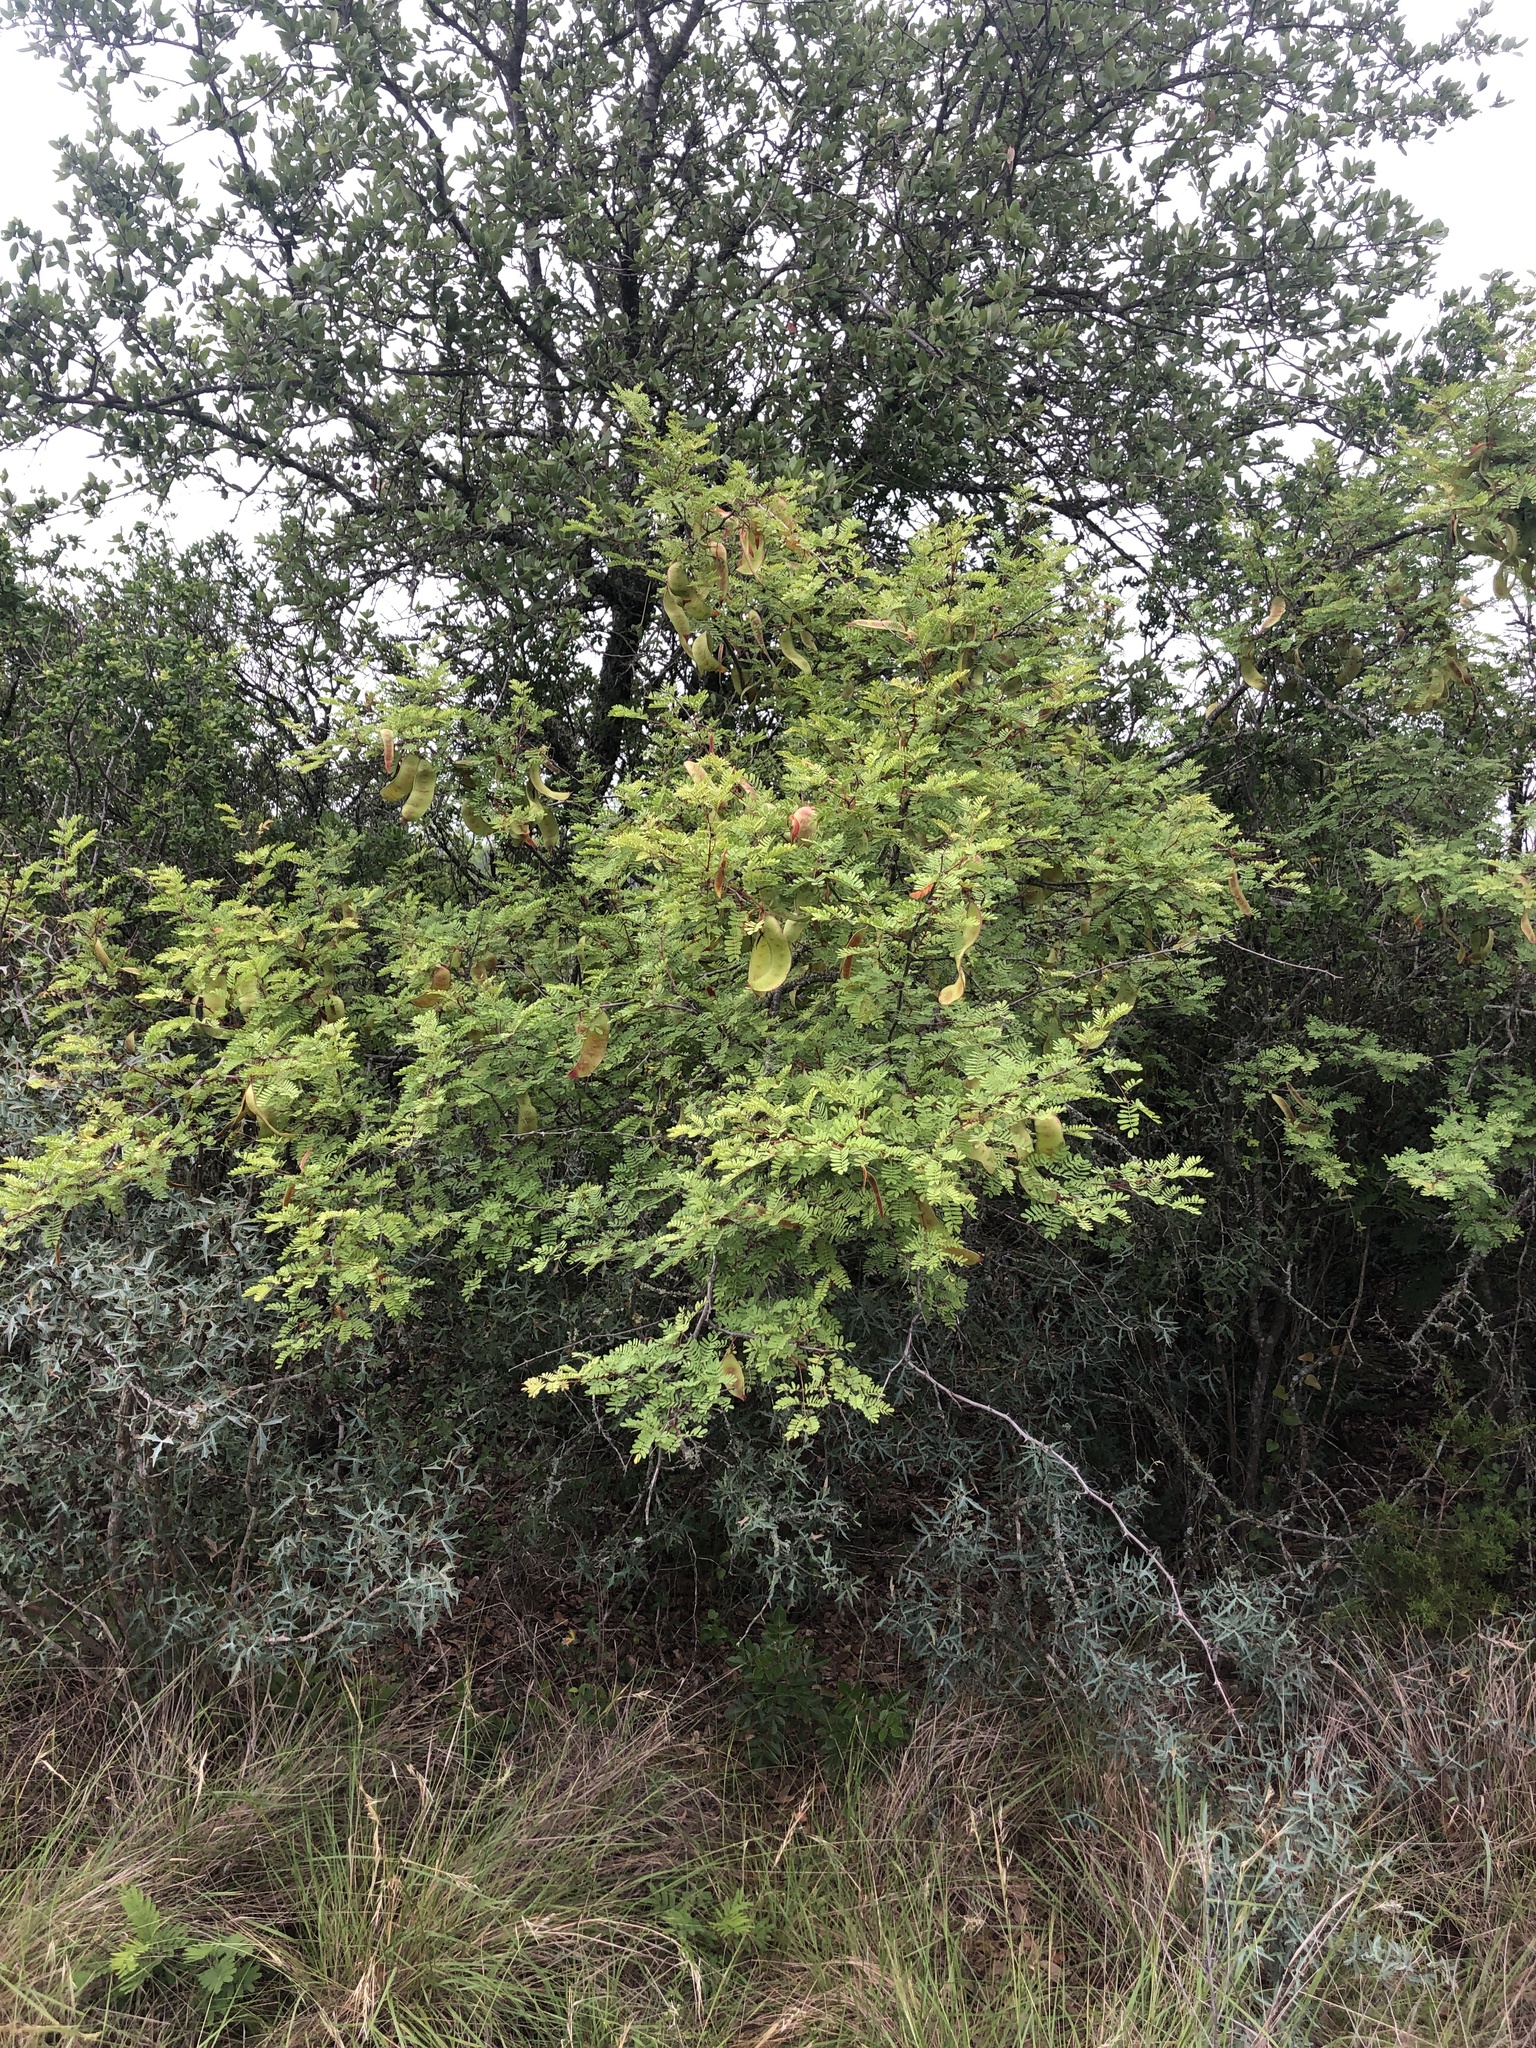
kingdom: Plantae
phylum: Tracheophyta
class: Magnoliopsida
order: Fabales
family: Fabaceae
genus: Senegalia
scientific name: Senegalia roemeriana
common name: Roemer's acacia
